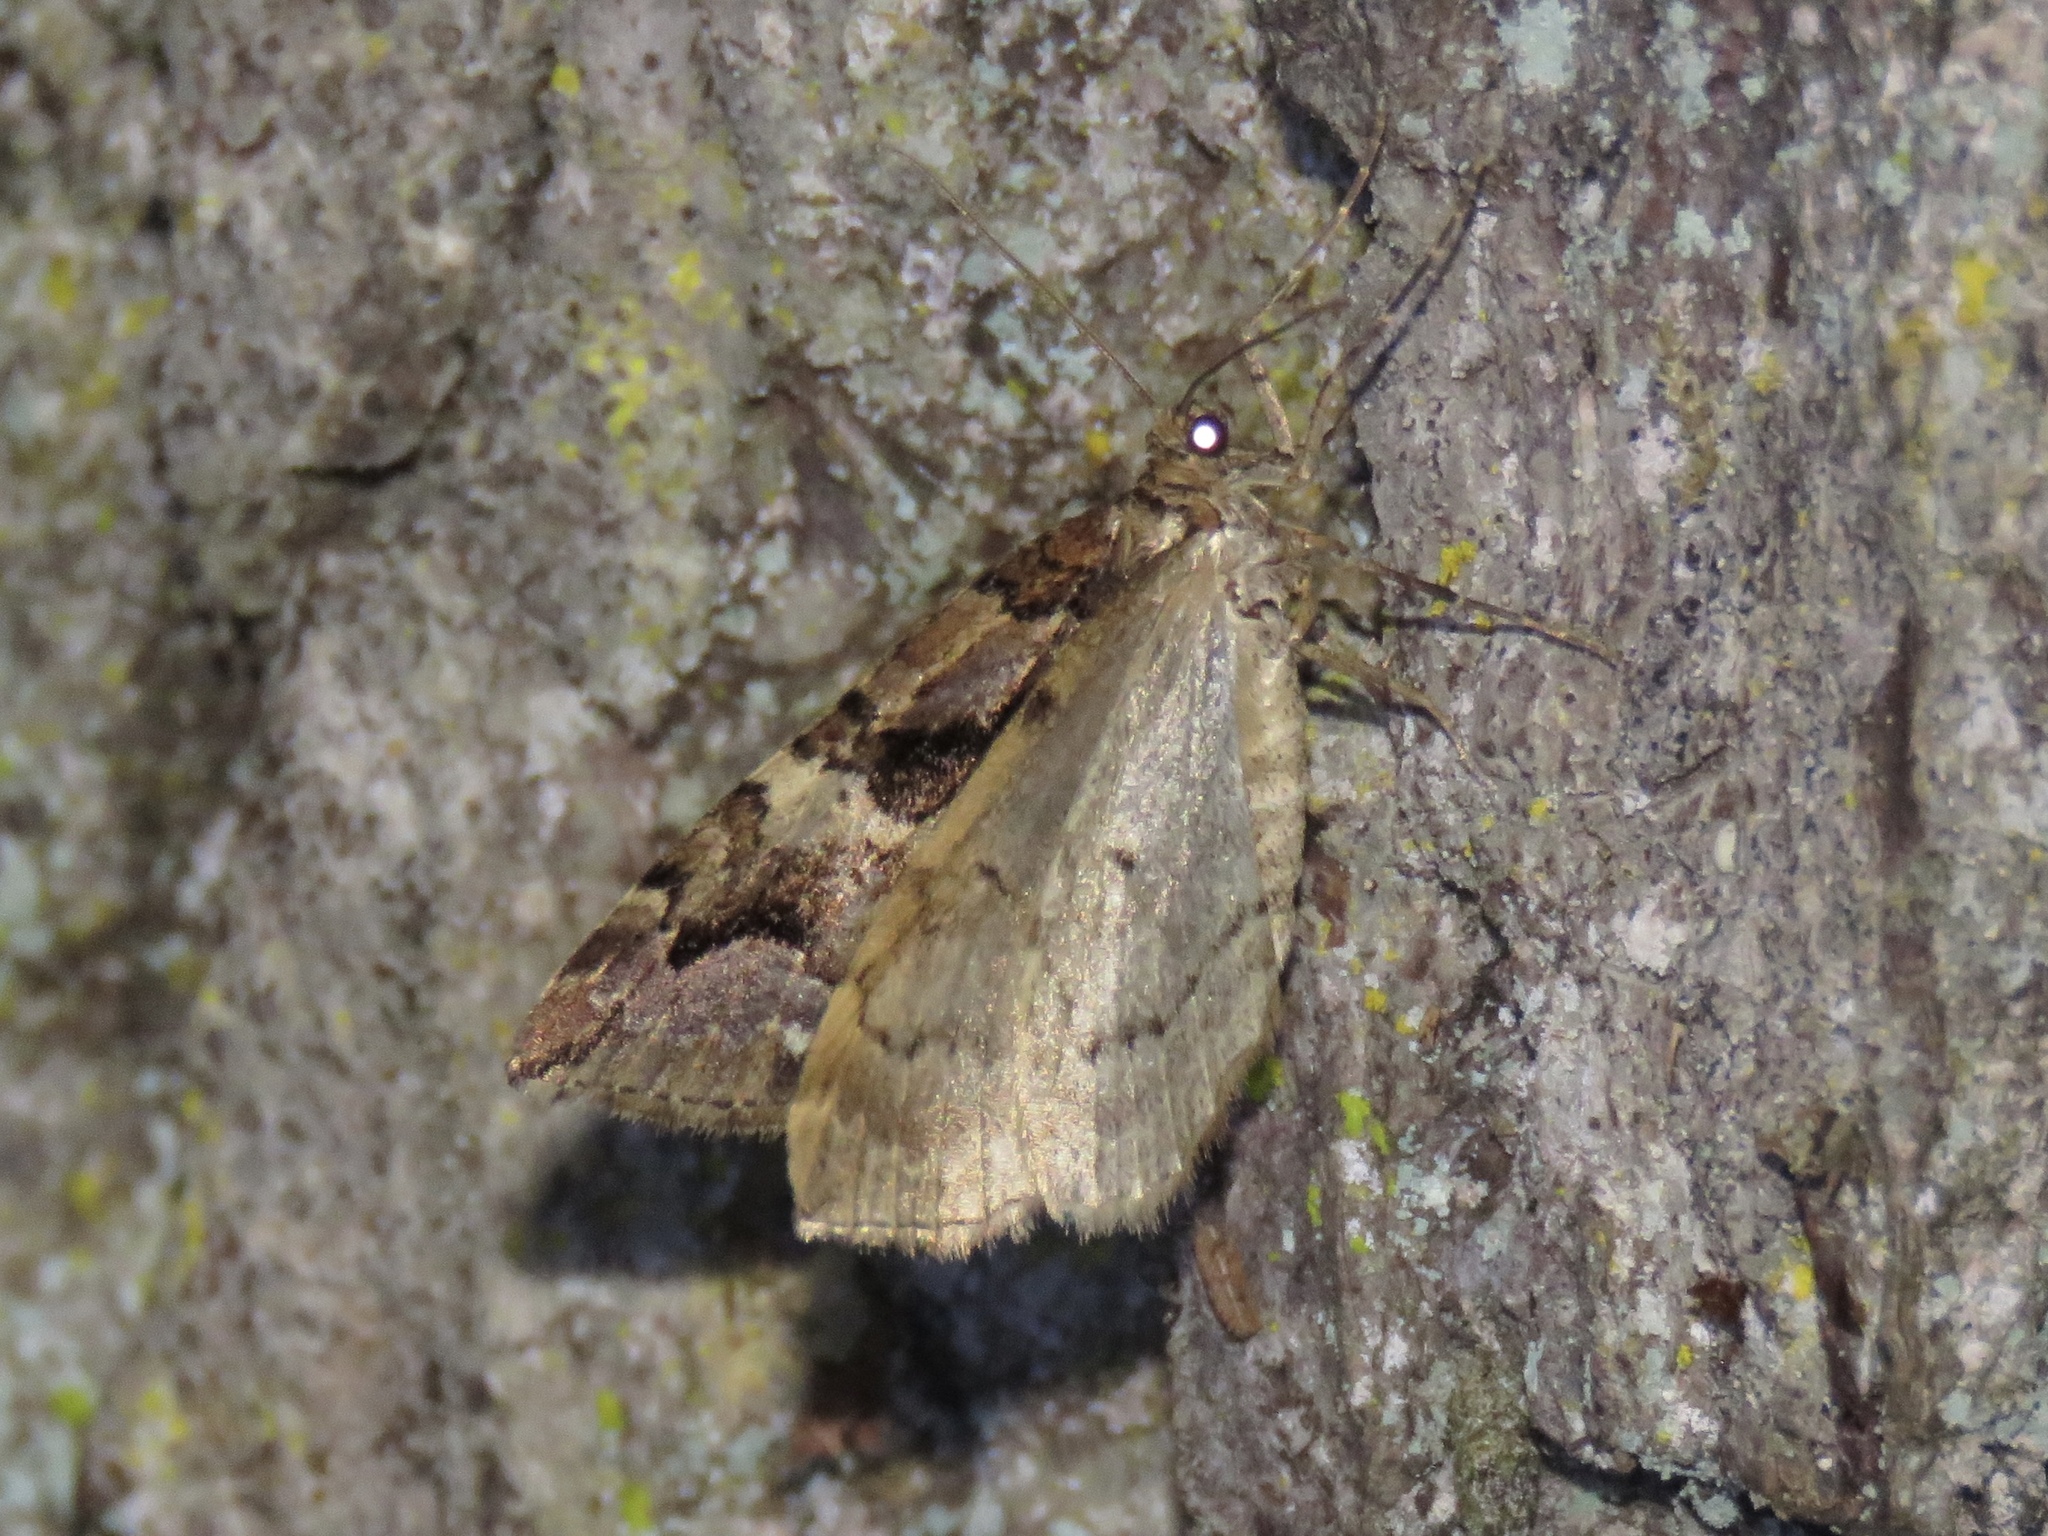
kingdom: Animalia
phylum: Arthropoda
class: Insecta
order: Lepidoptera
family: Geometridae
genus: Anticlea
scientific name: Anticlea vasiliata
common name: Variable carpet
